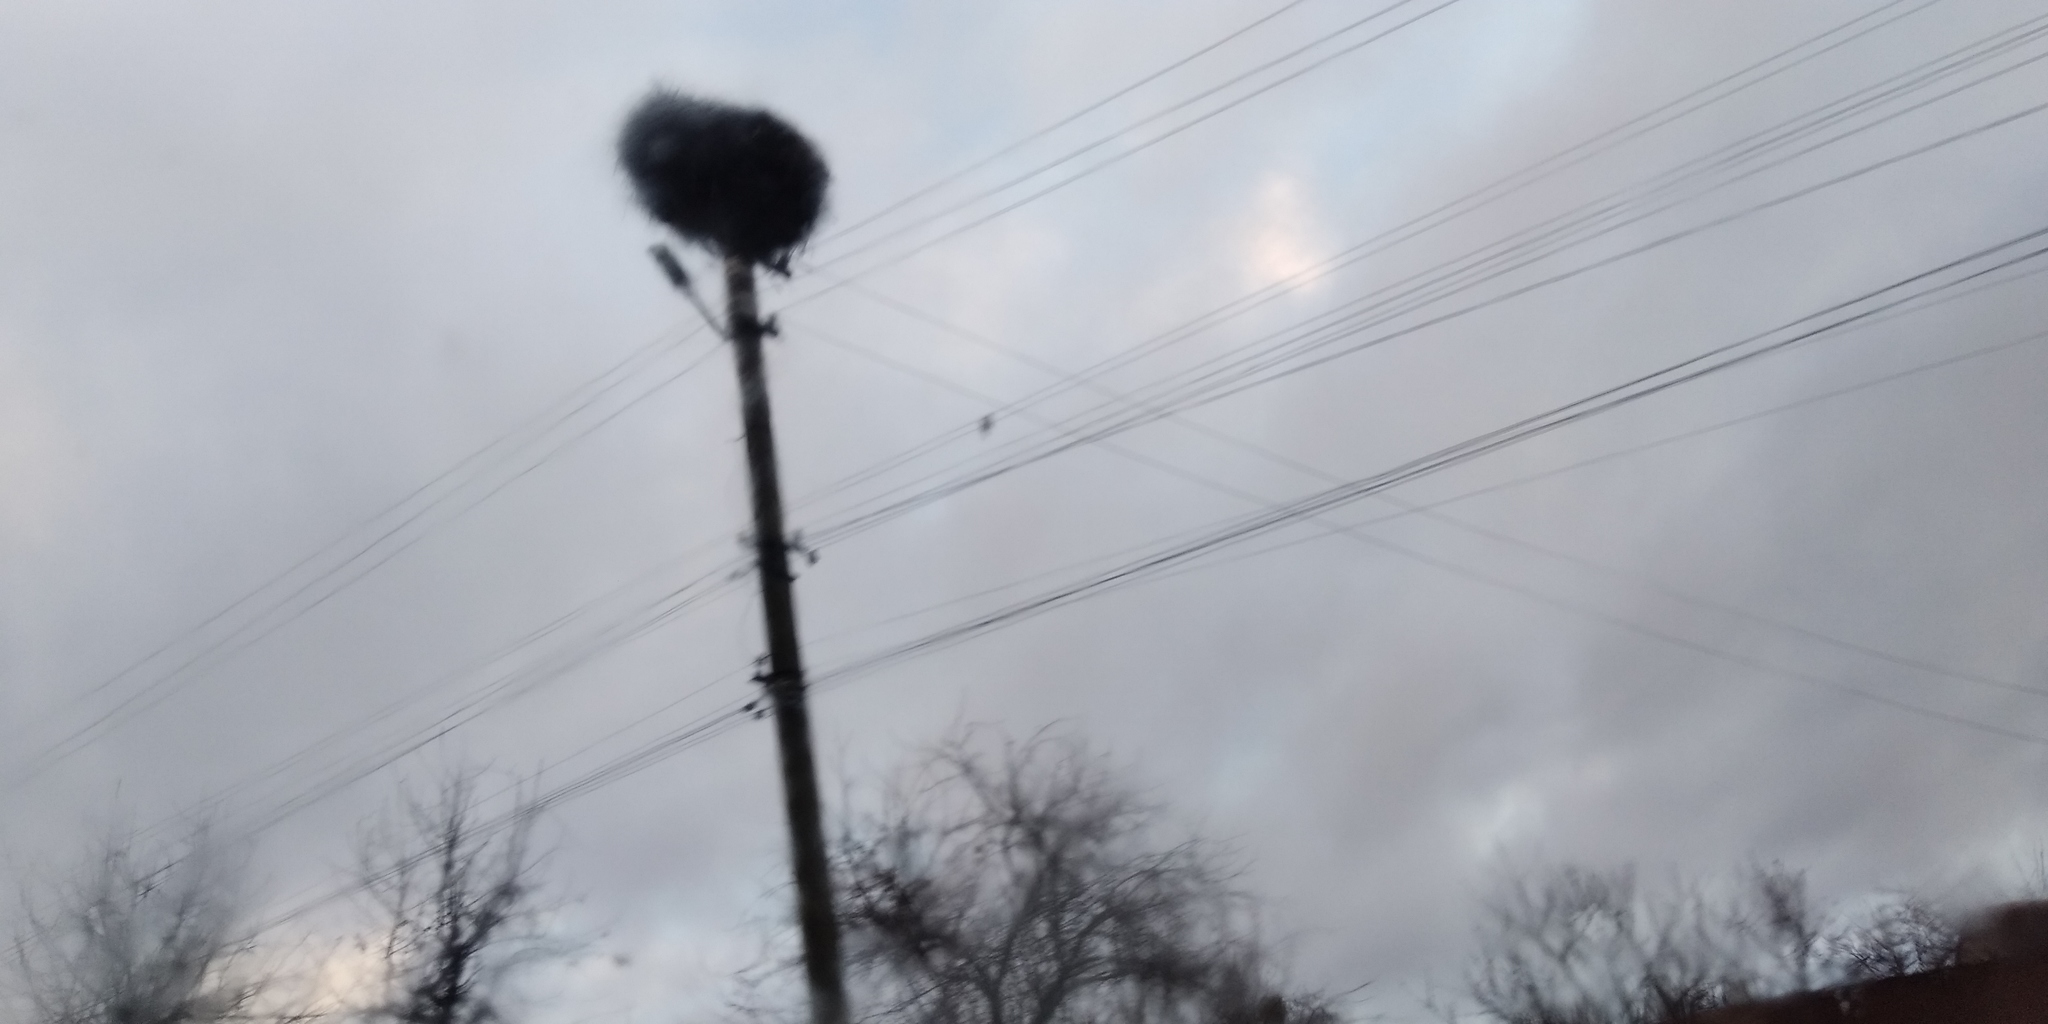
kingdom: Animalia
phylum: Chordata
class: Aves
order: Ciconiiformes
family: Ciconiidae
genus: Ciconia
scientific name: Ciconia ciconia
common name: White stork
